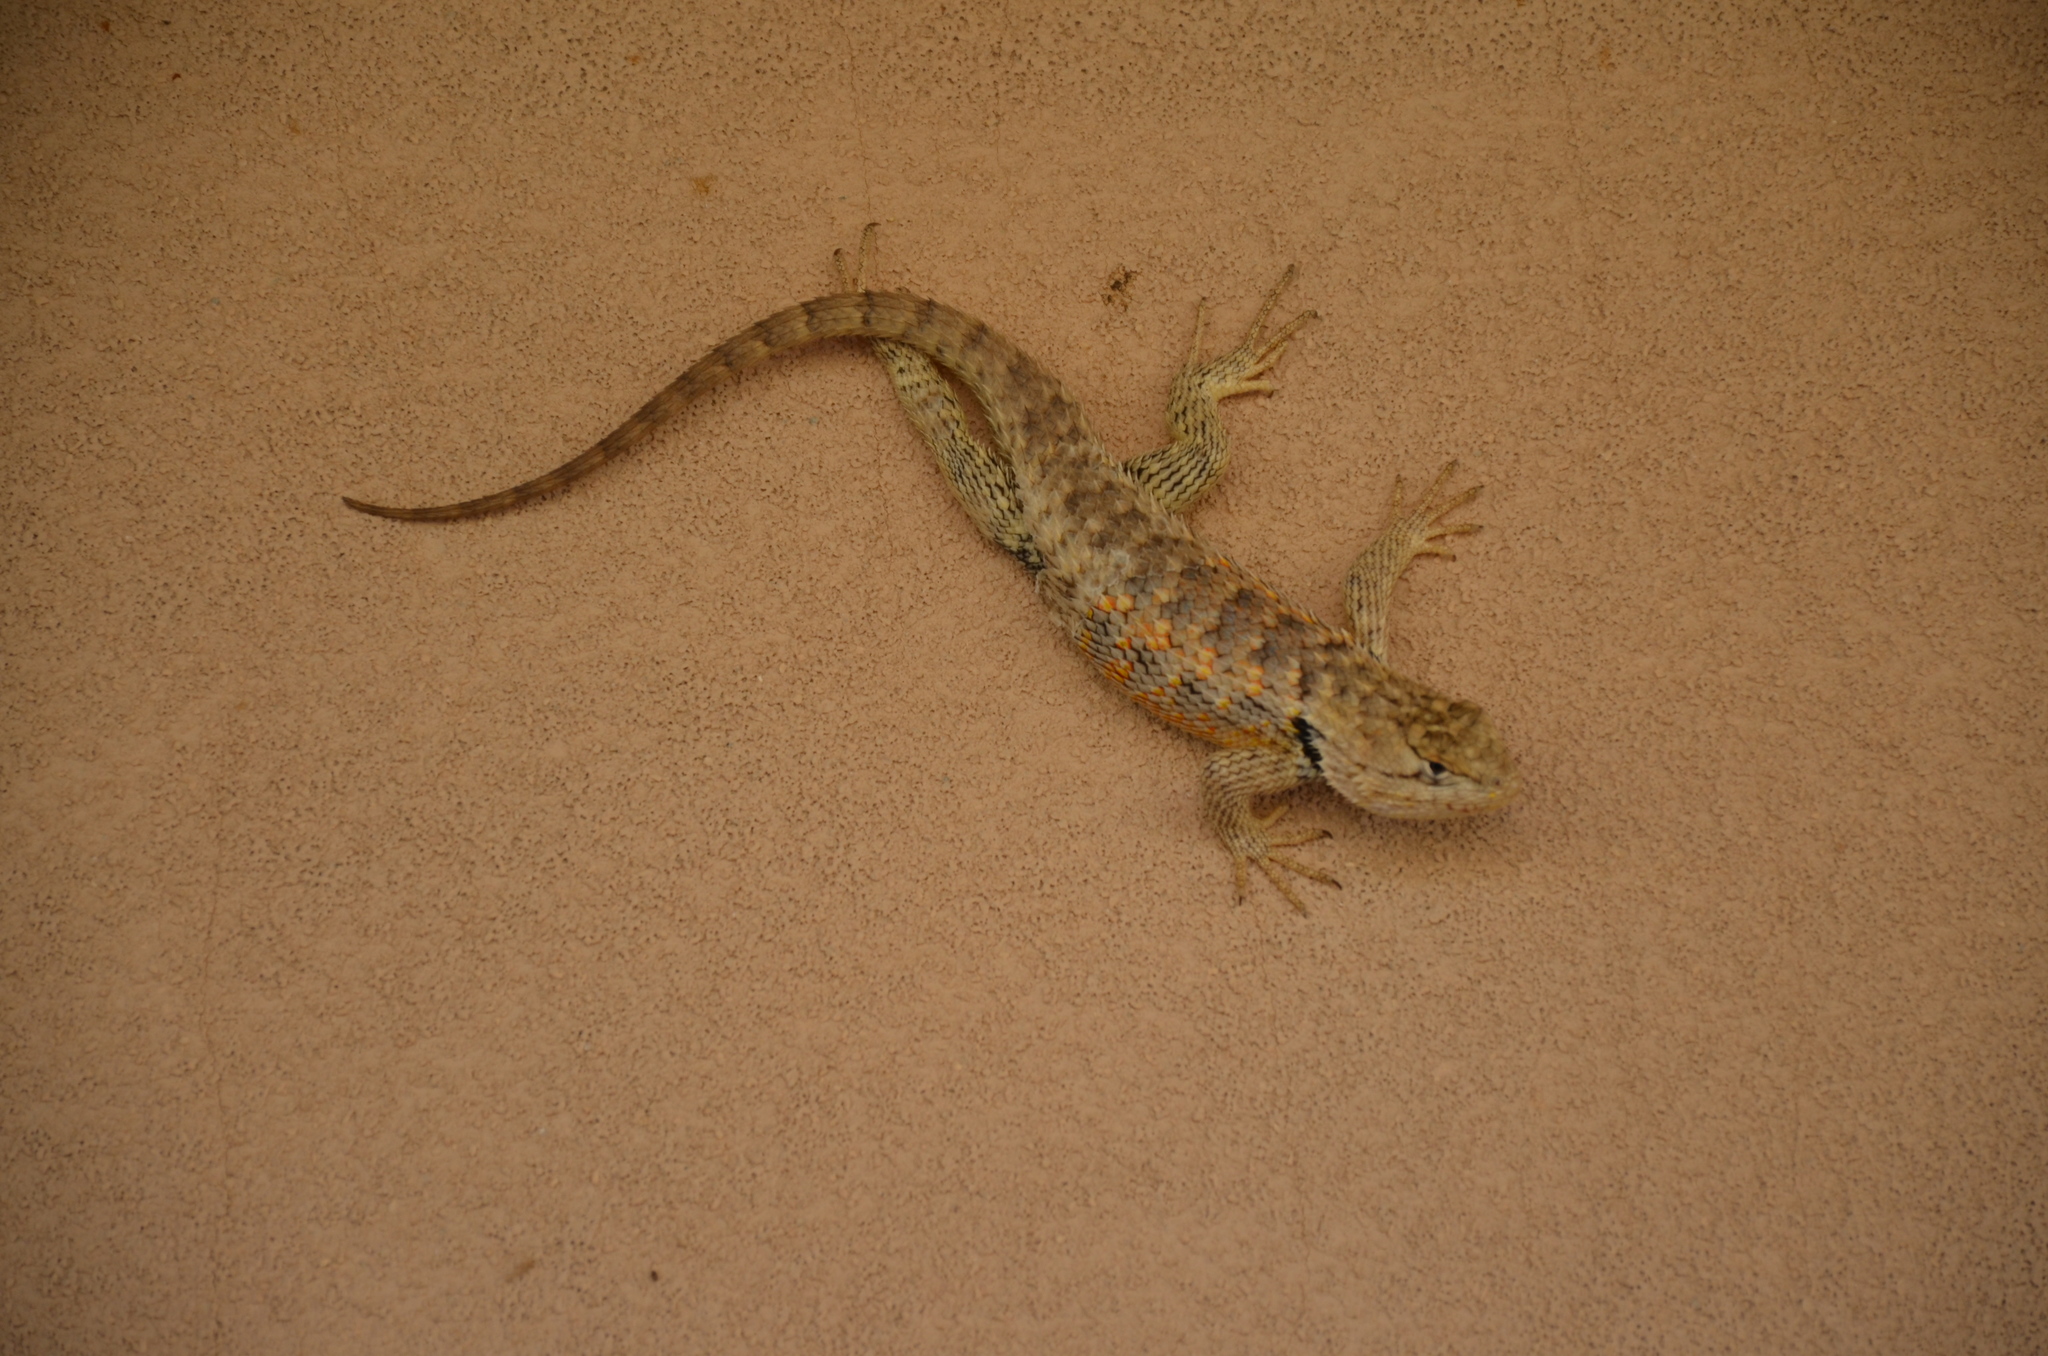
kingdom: Animalia
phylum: Chordata
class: Squamata
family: Phrynosomatidae
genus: Sceloporus
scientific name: Sceloporus bimaculosus
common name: Twin-spotted spiny lizard
